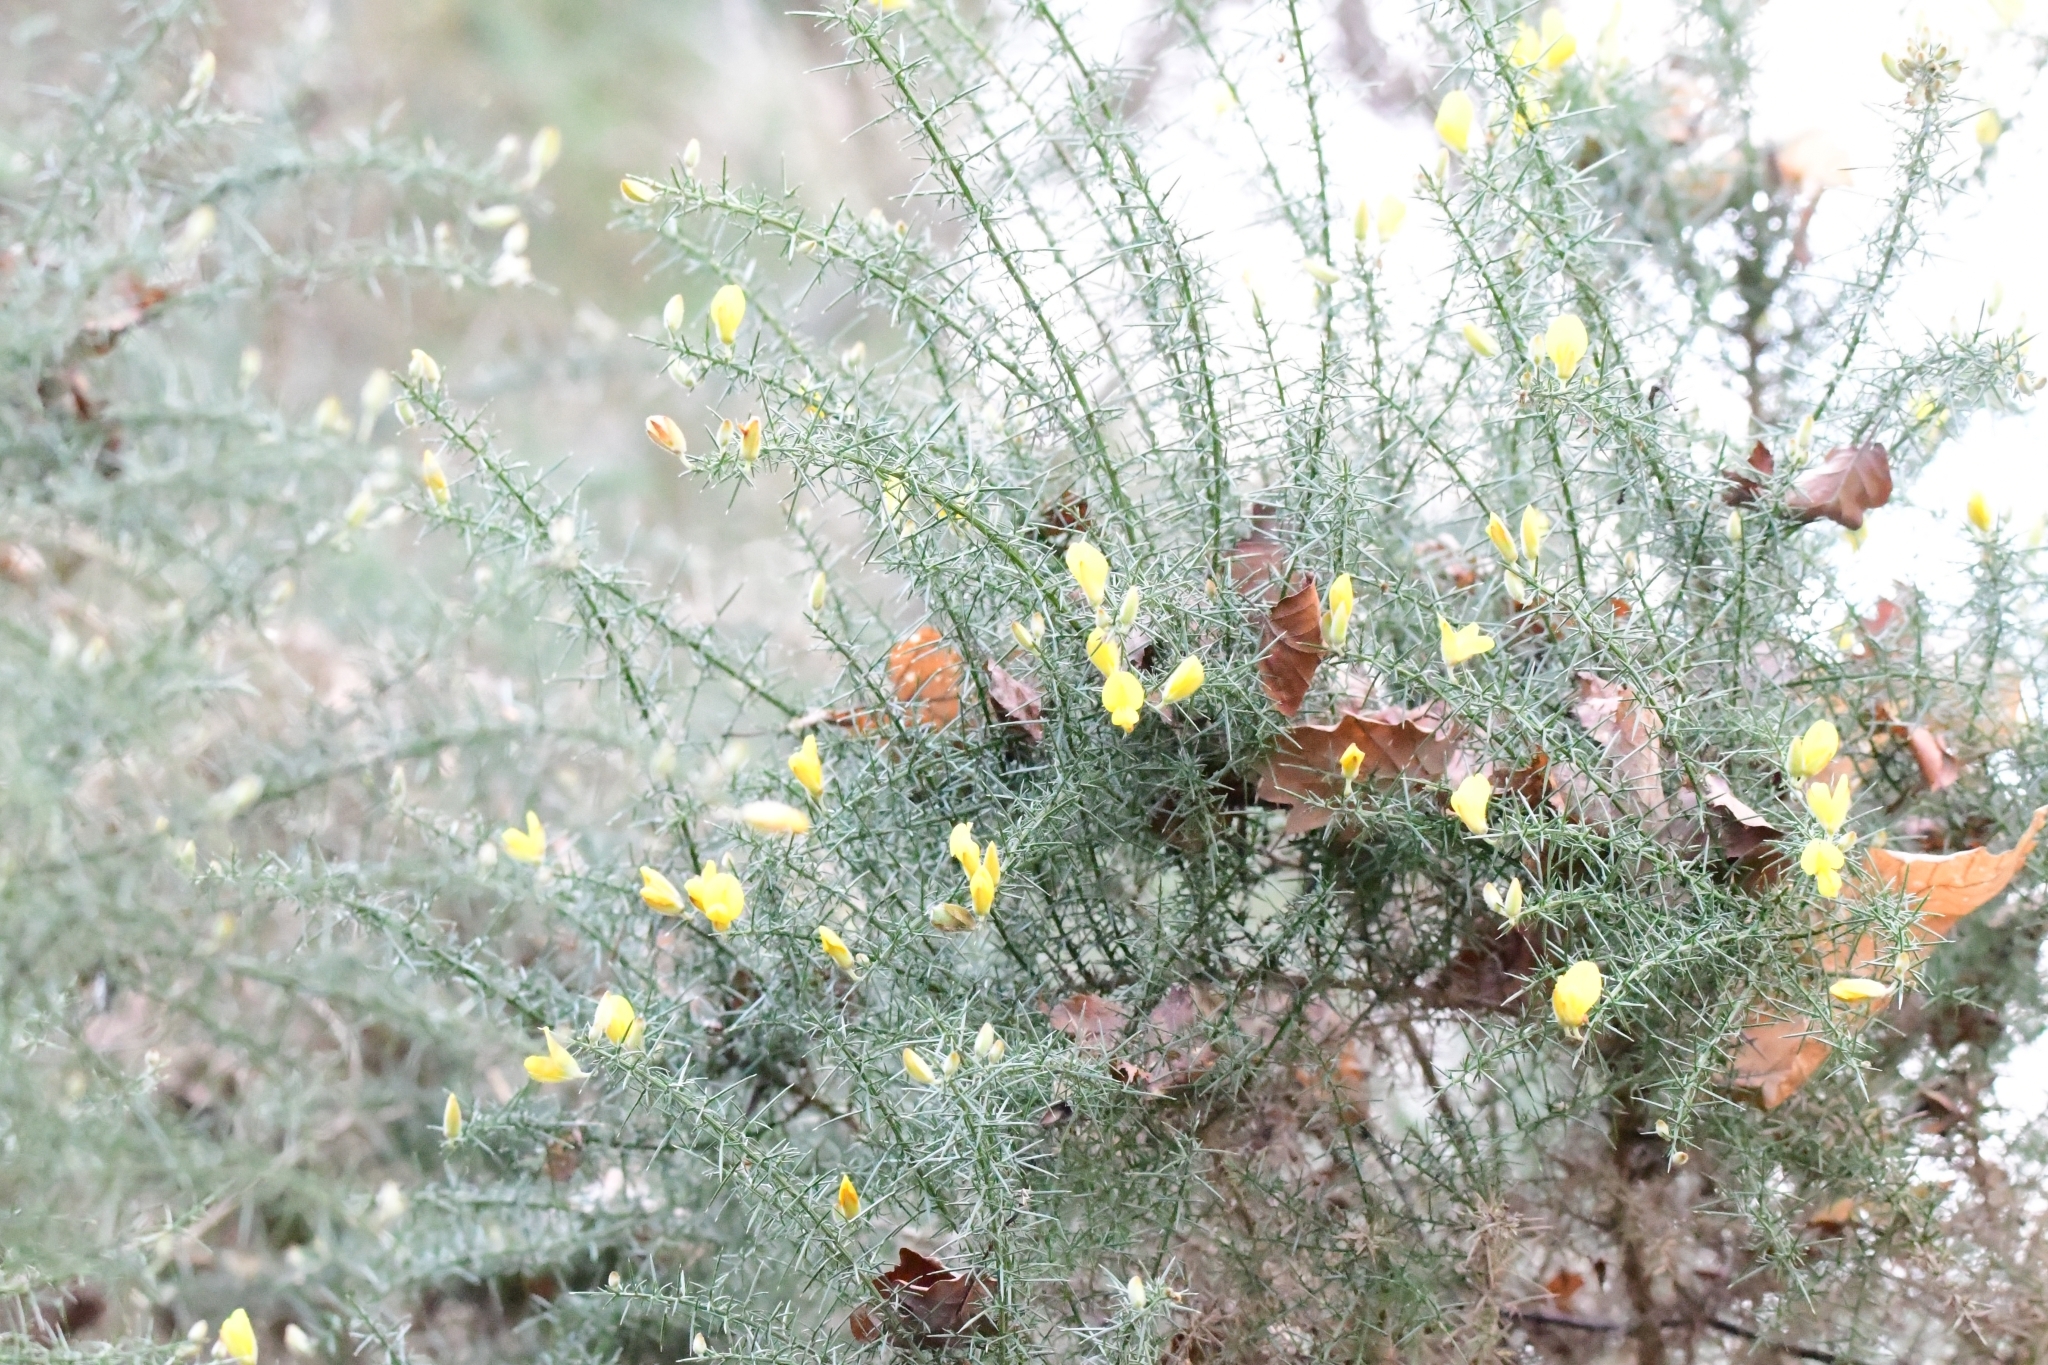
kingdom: Plantae
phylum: Tracheophyta
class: Magnoliopsida
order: Fabales
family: Fabaceae
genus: Ulex
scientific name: Ulex europaeus
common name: Common gorse
